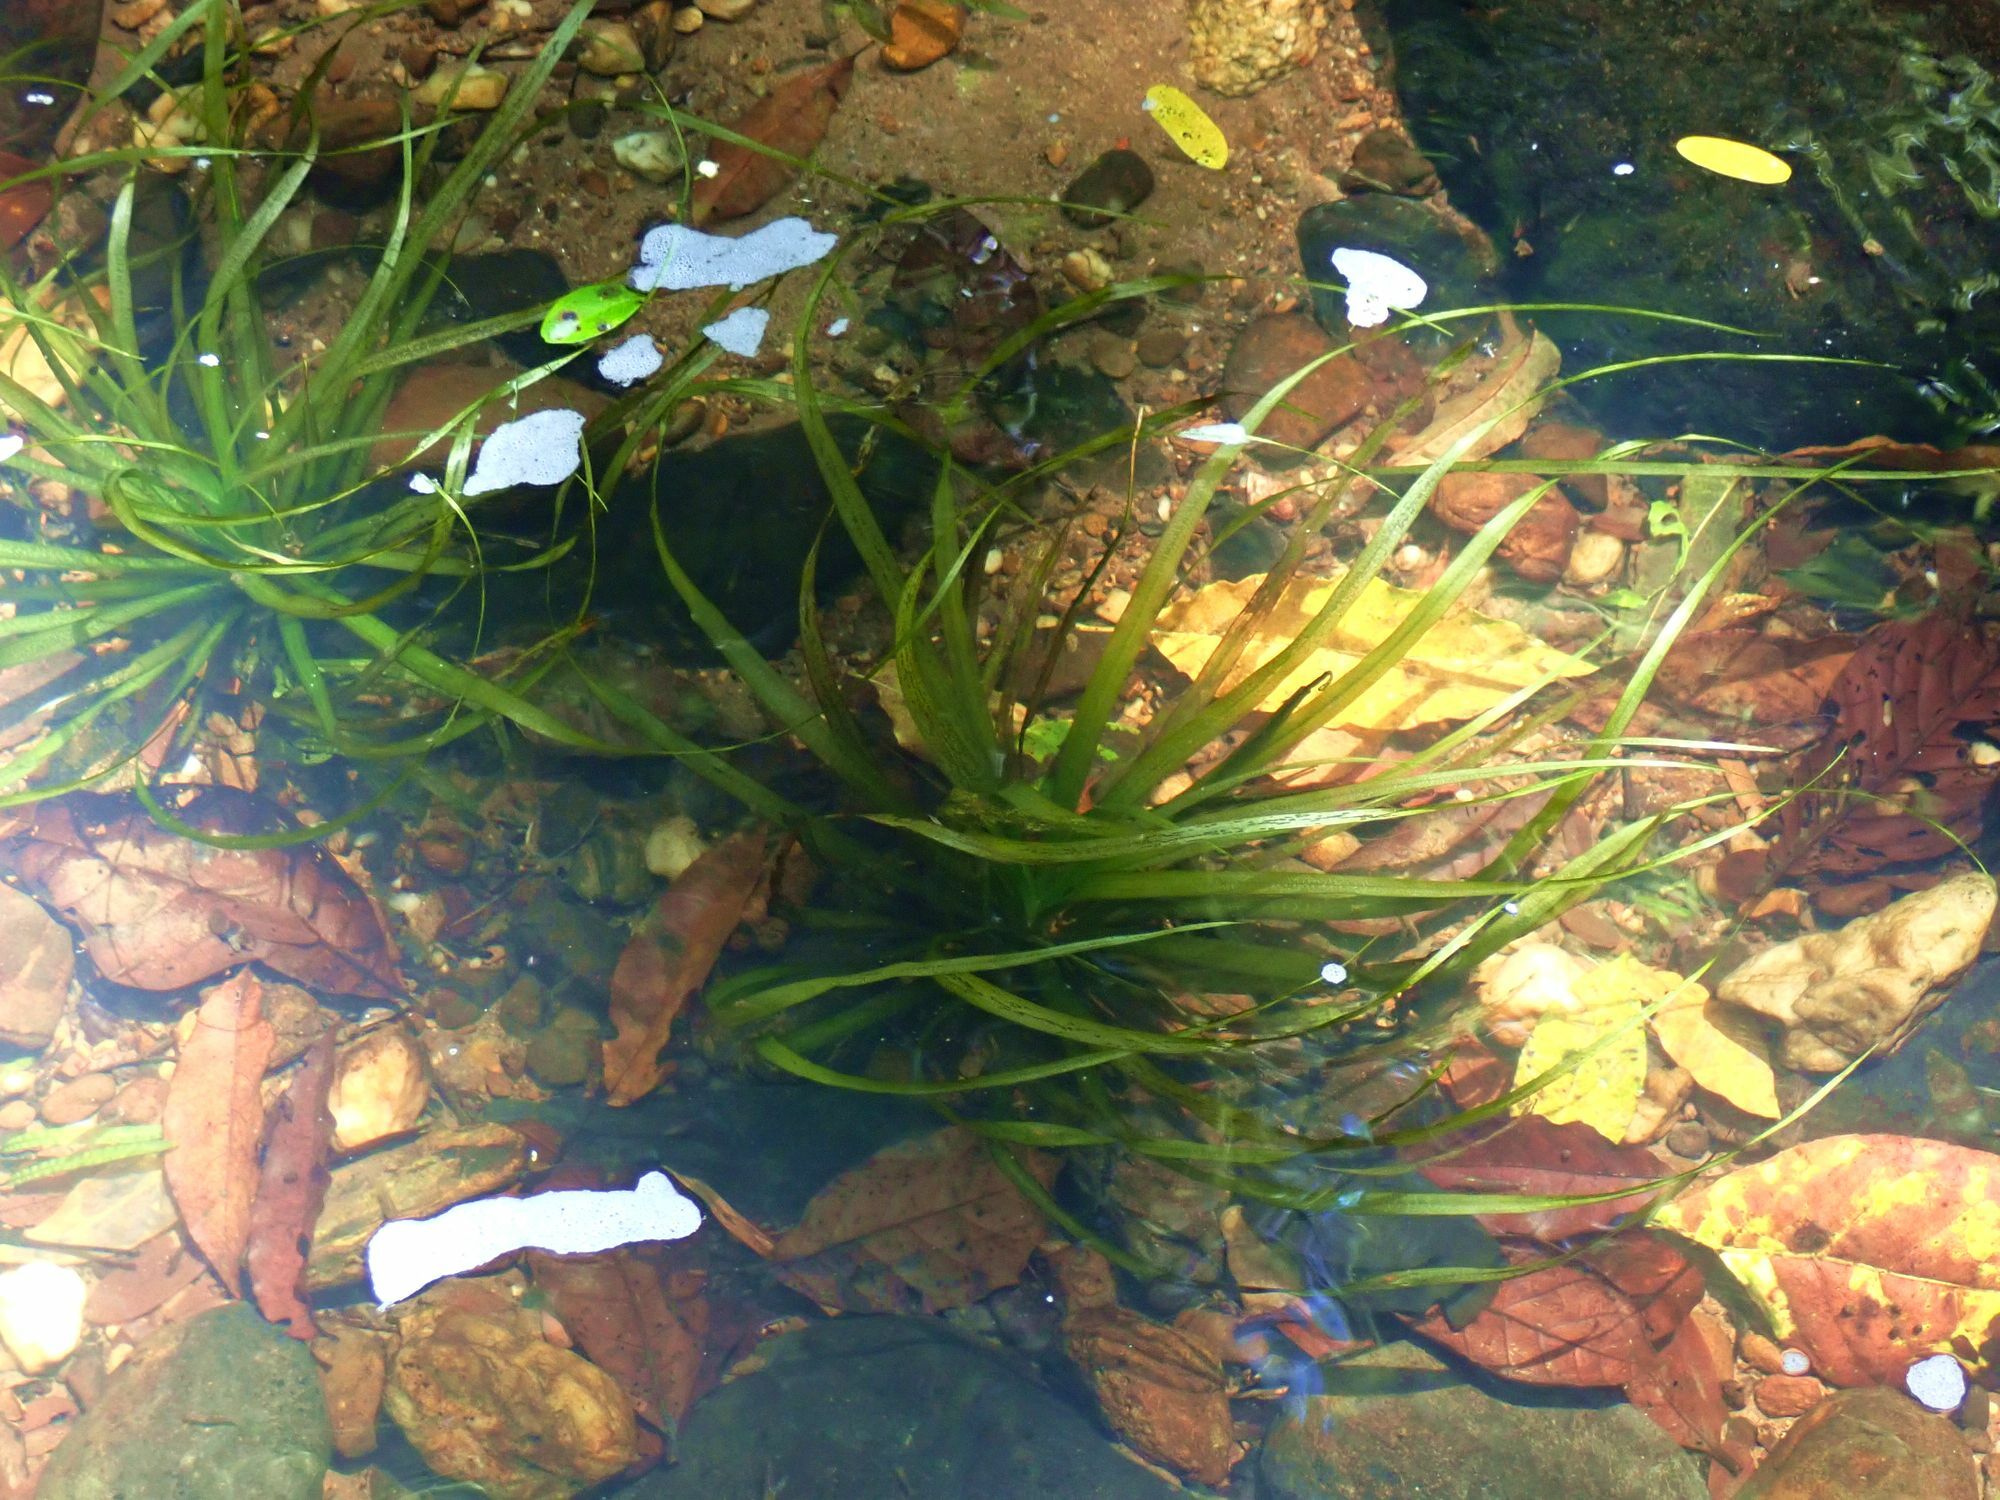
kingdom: Plantae
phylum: Tracheophyta
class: Liliopsida
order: Alismatales
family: Hydrocharitaceae
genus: Blyxa
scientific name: Blyxa aubertii
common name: Roundfruit blyxa
